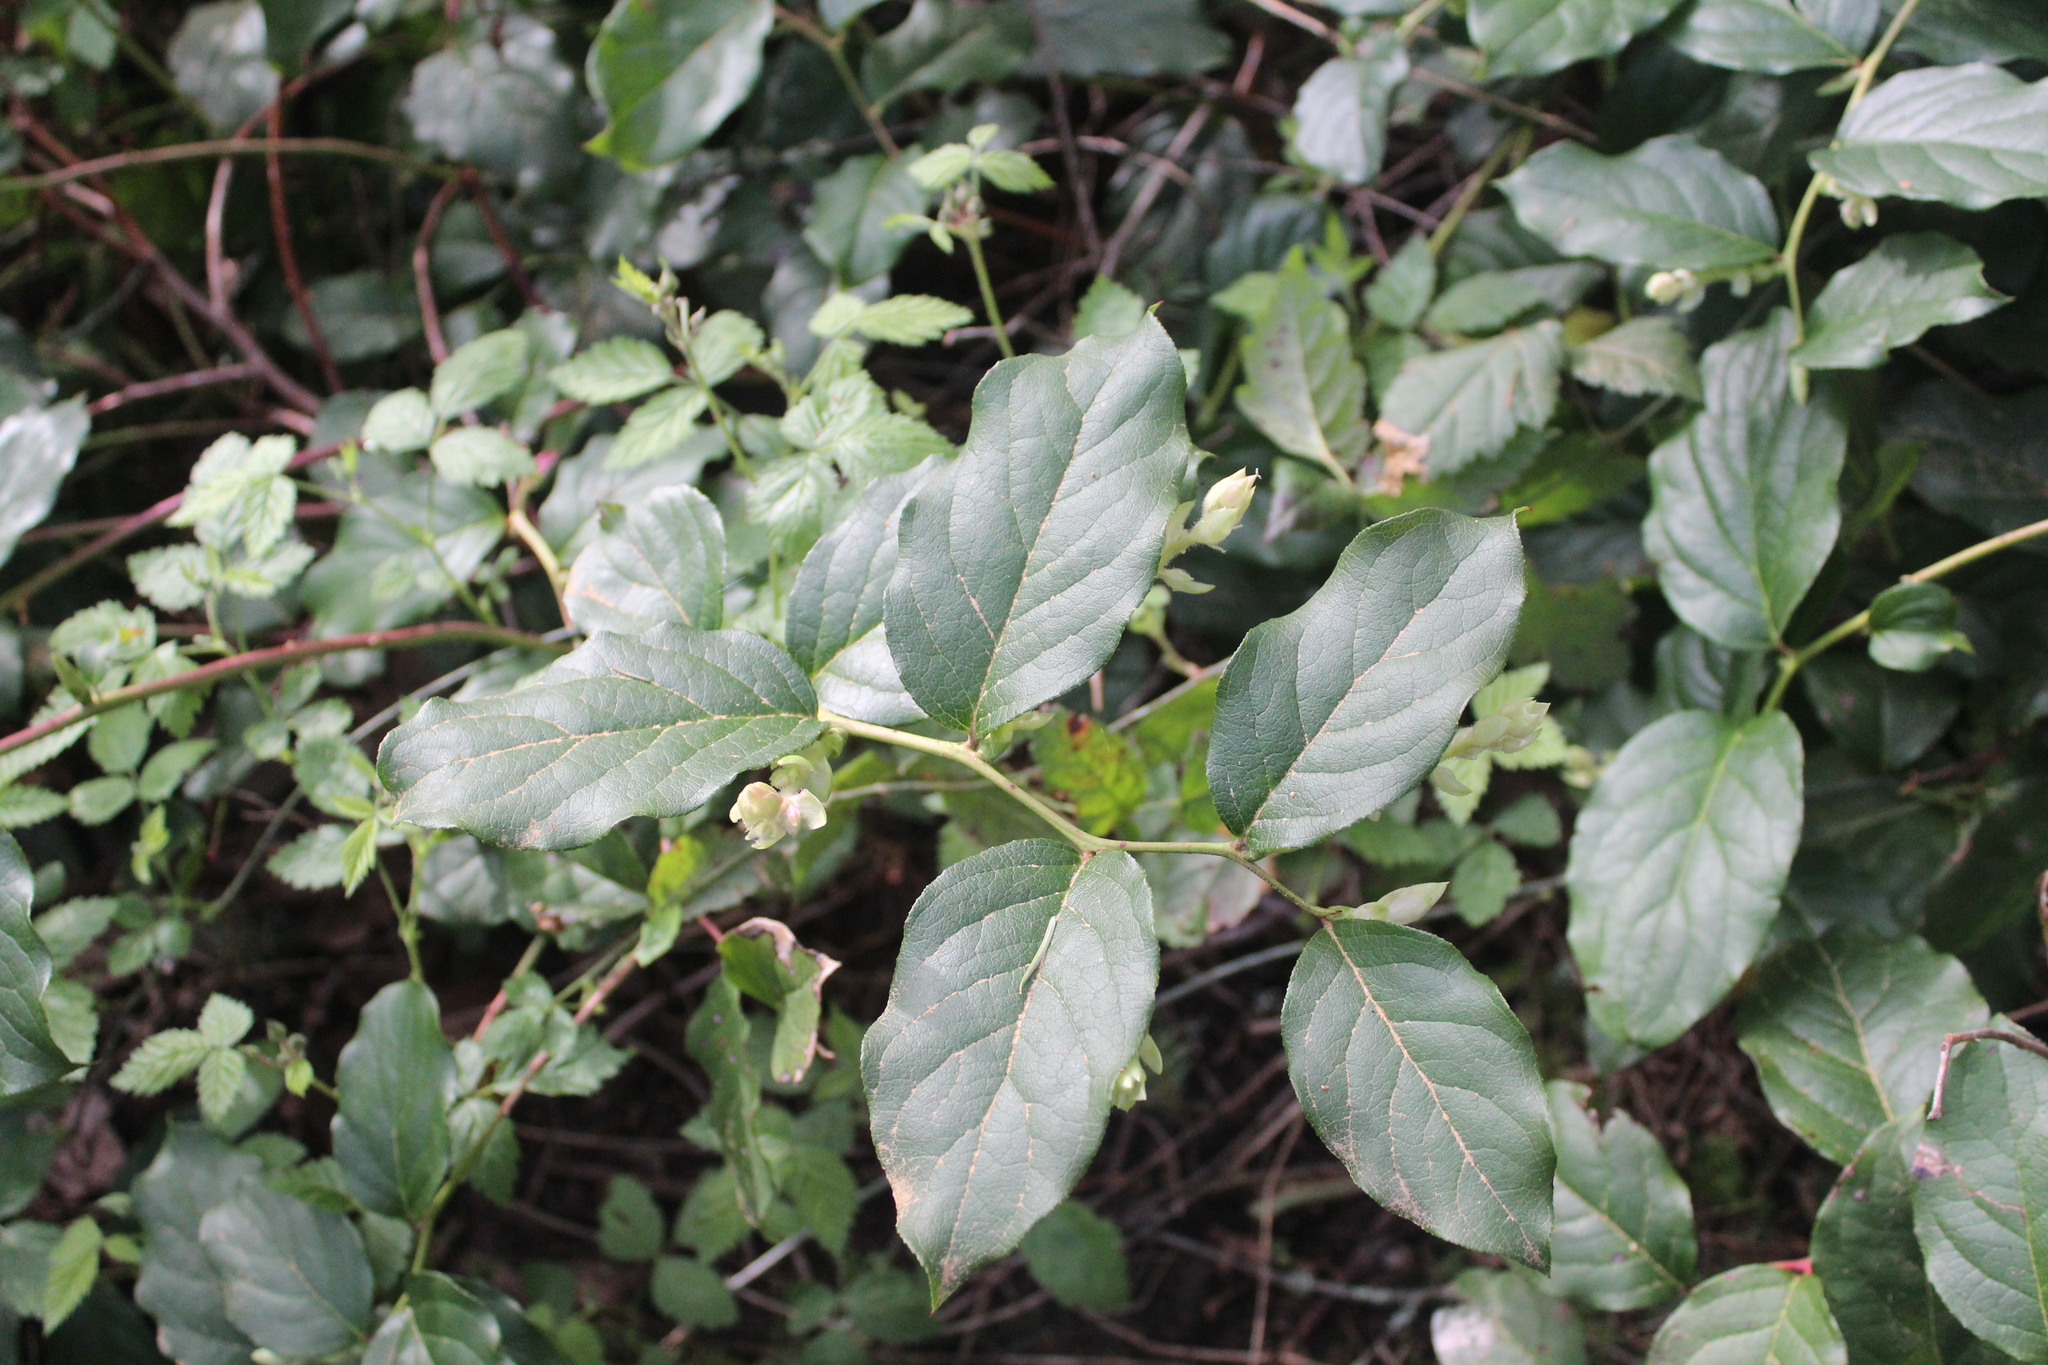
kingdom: Plantae
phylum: Tracheophyta
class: Magnoliopsida
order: Ericales
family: Ericaceae
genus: Gaultheria
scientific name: Gaultheria shallon
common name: Shallon
